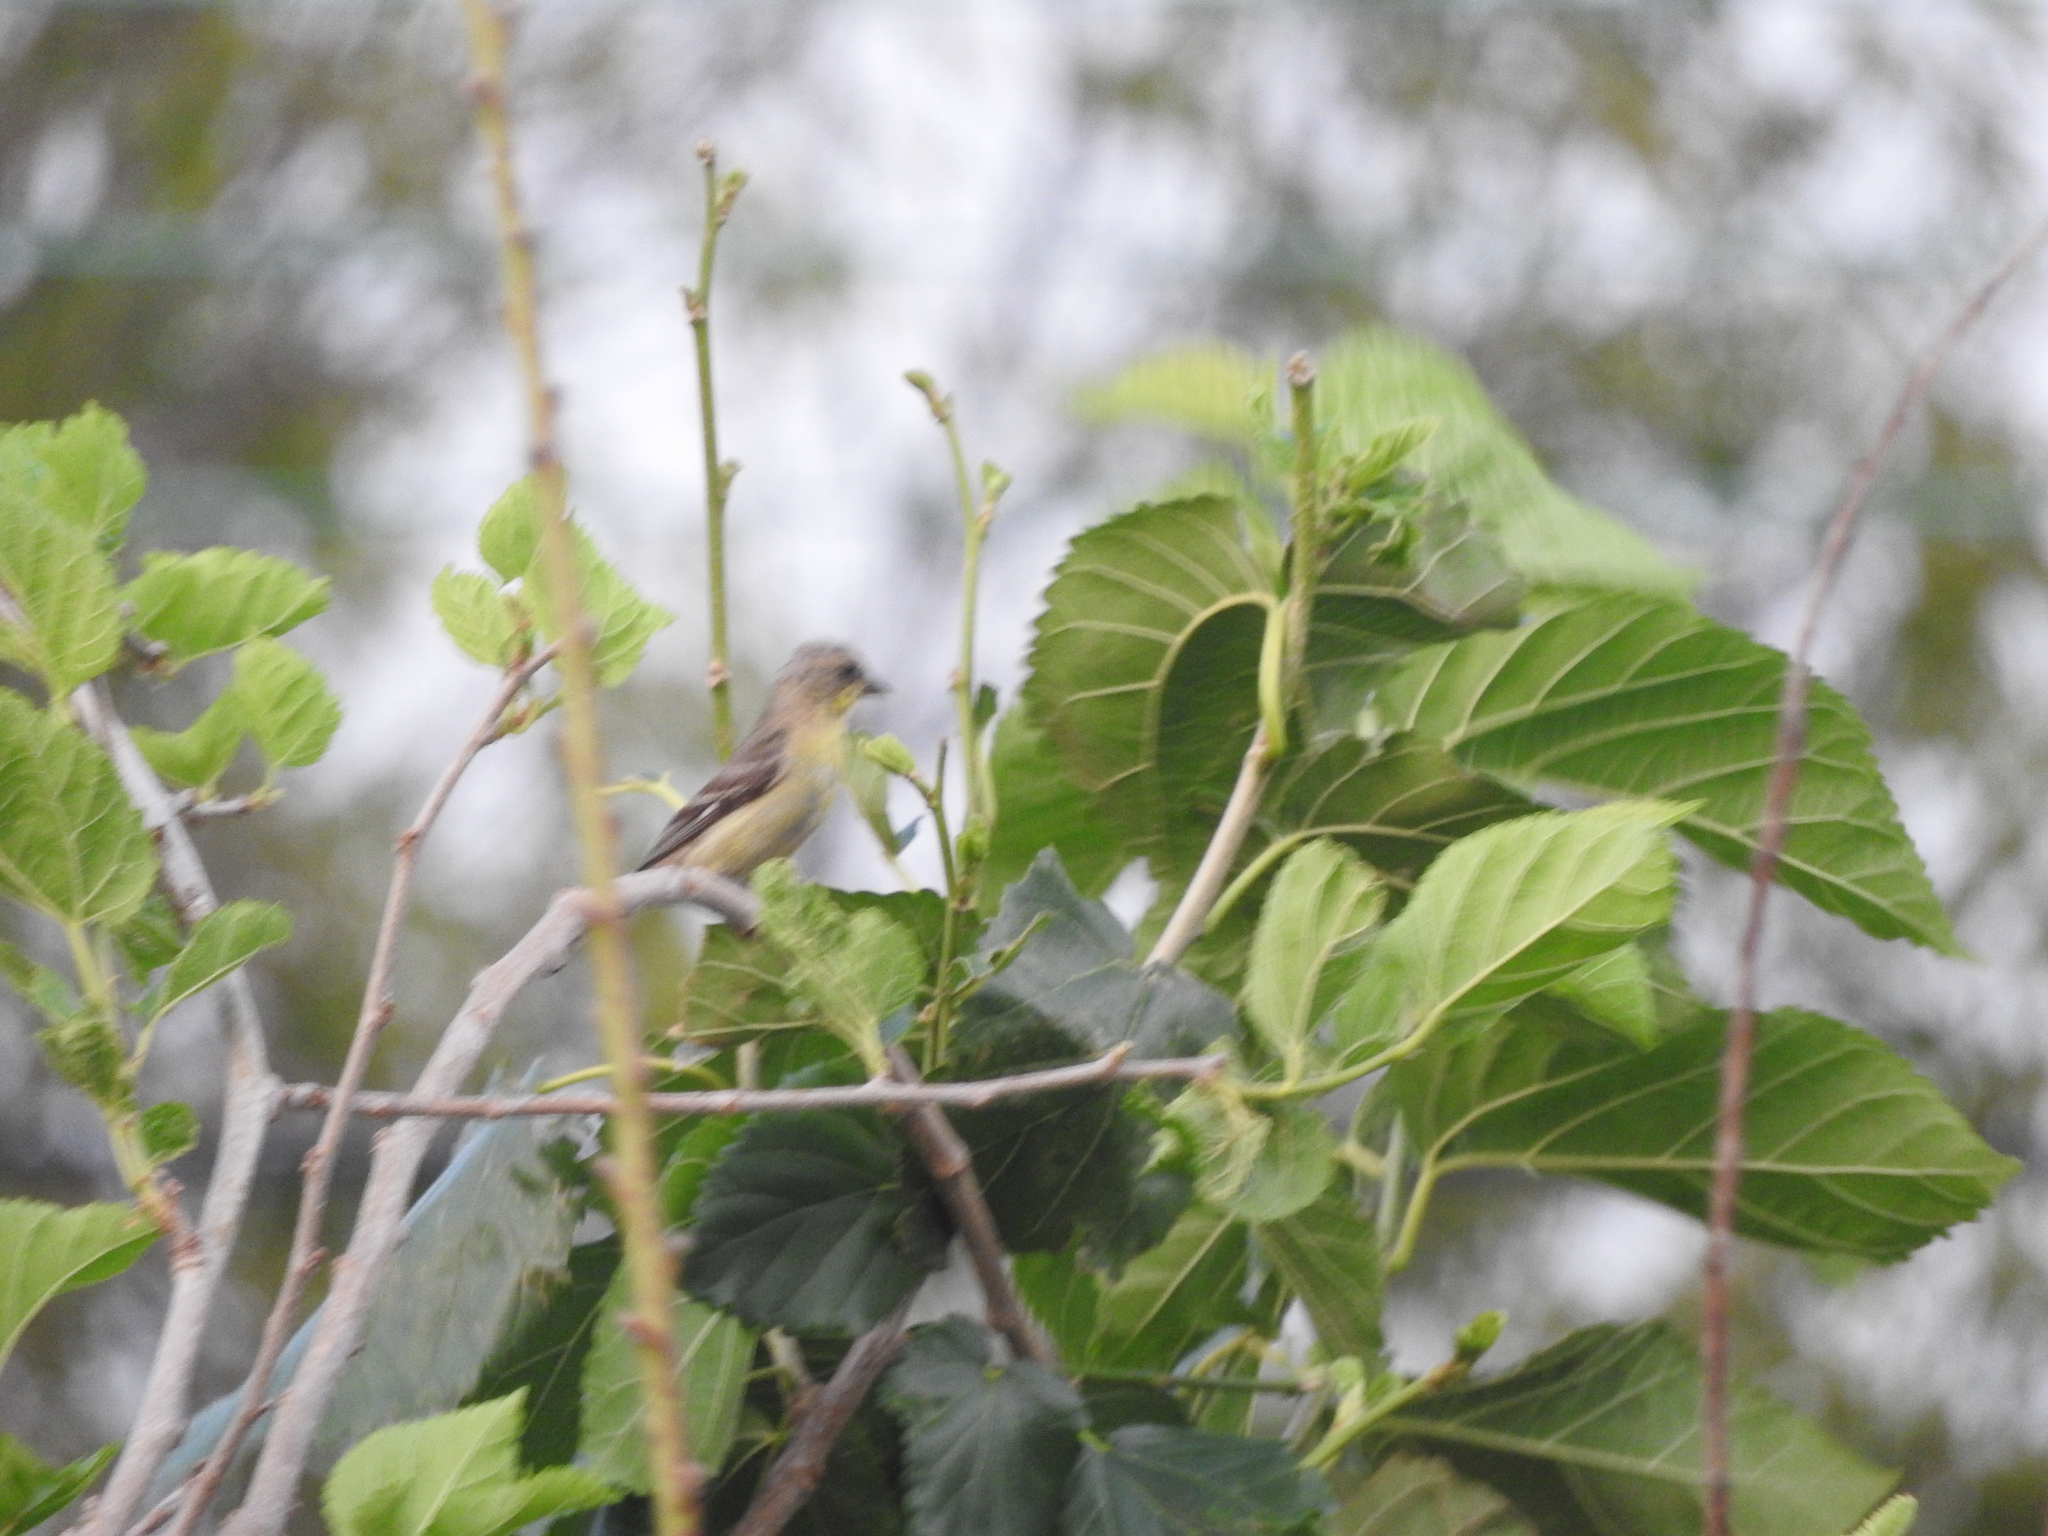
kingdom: Animalia
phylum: Chordata
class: Aves
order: Passeriformes
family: Fringillidae
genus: Spinus
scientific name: Spinus psaltria
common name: Lesser goldfinch
